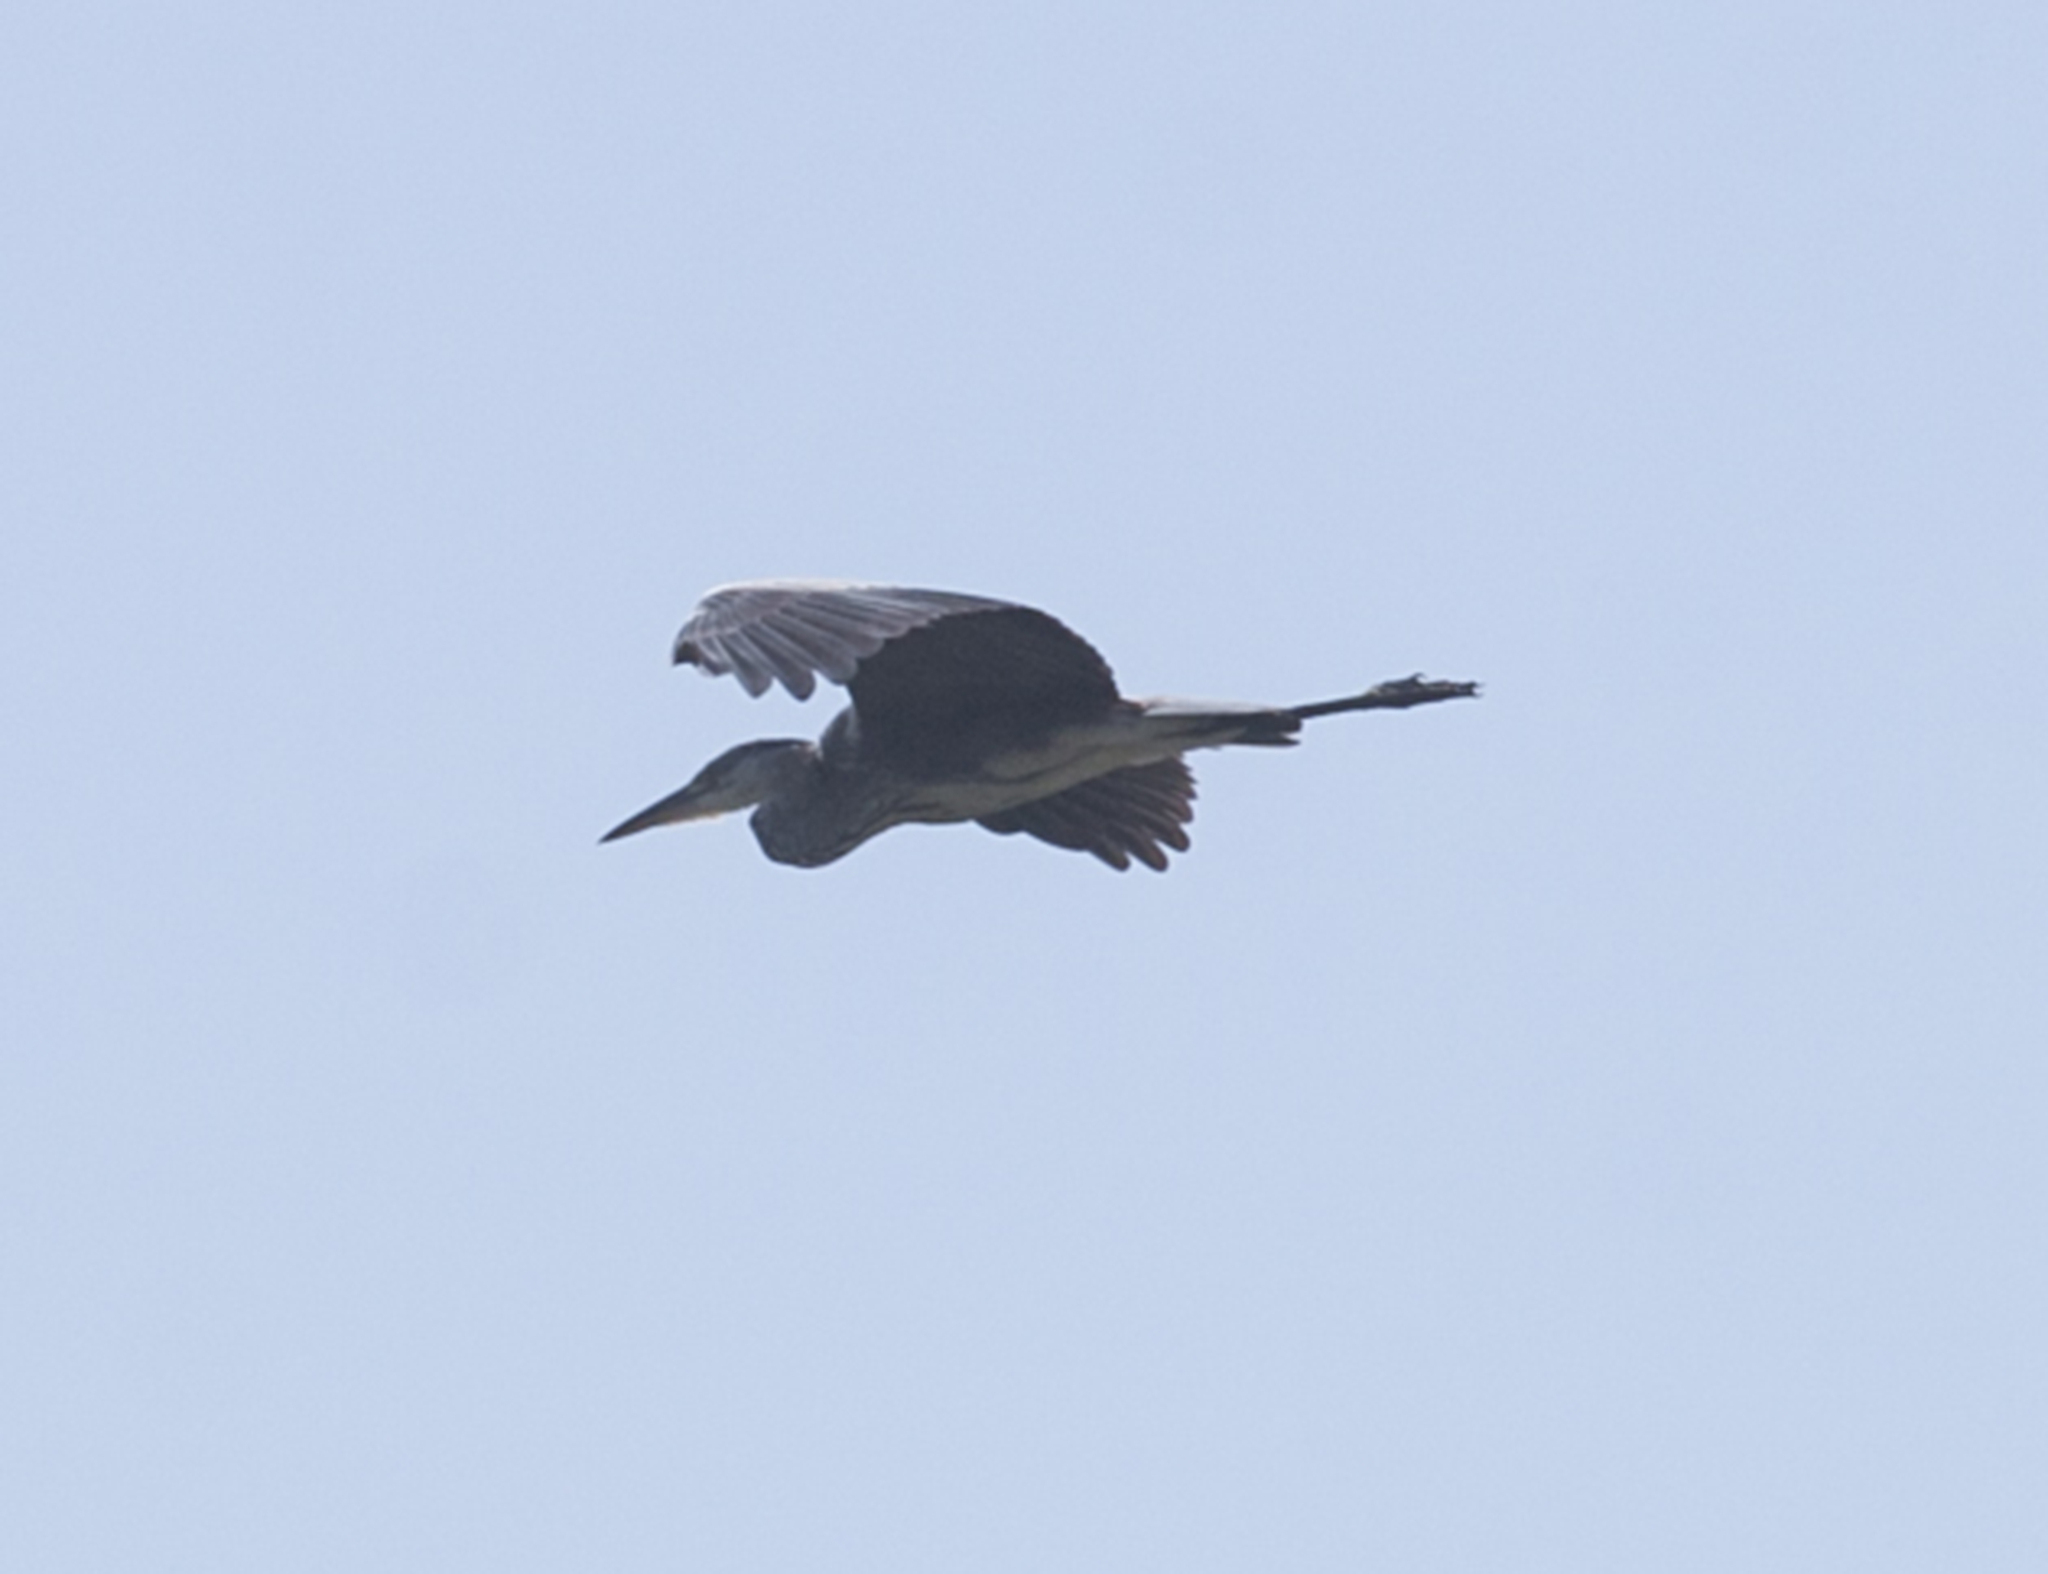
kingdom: Animalia
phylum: Chordata
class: Aves
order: Pelecaniformes
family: Ardeidae
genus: Ardea
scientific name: Ardea cinerea
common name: Grey heron
